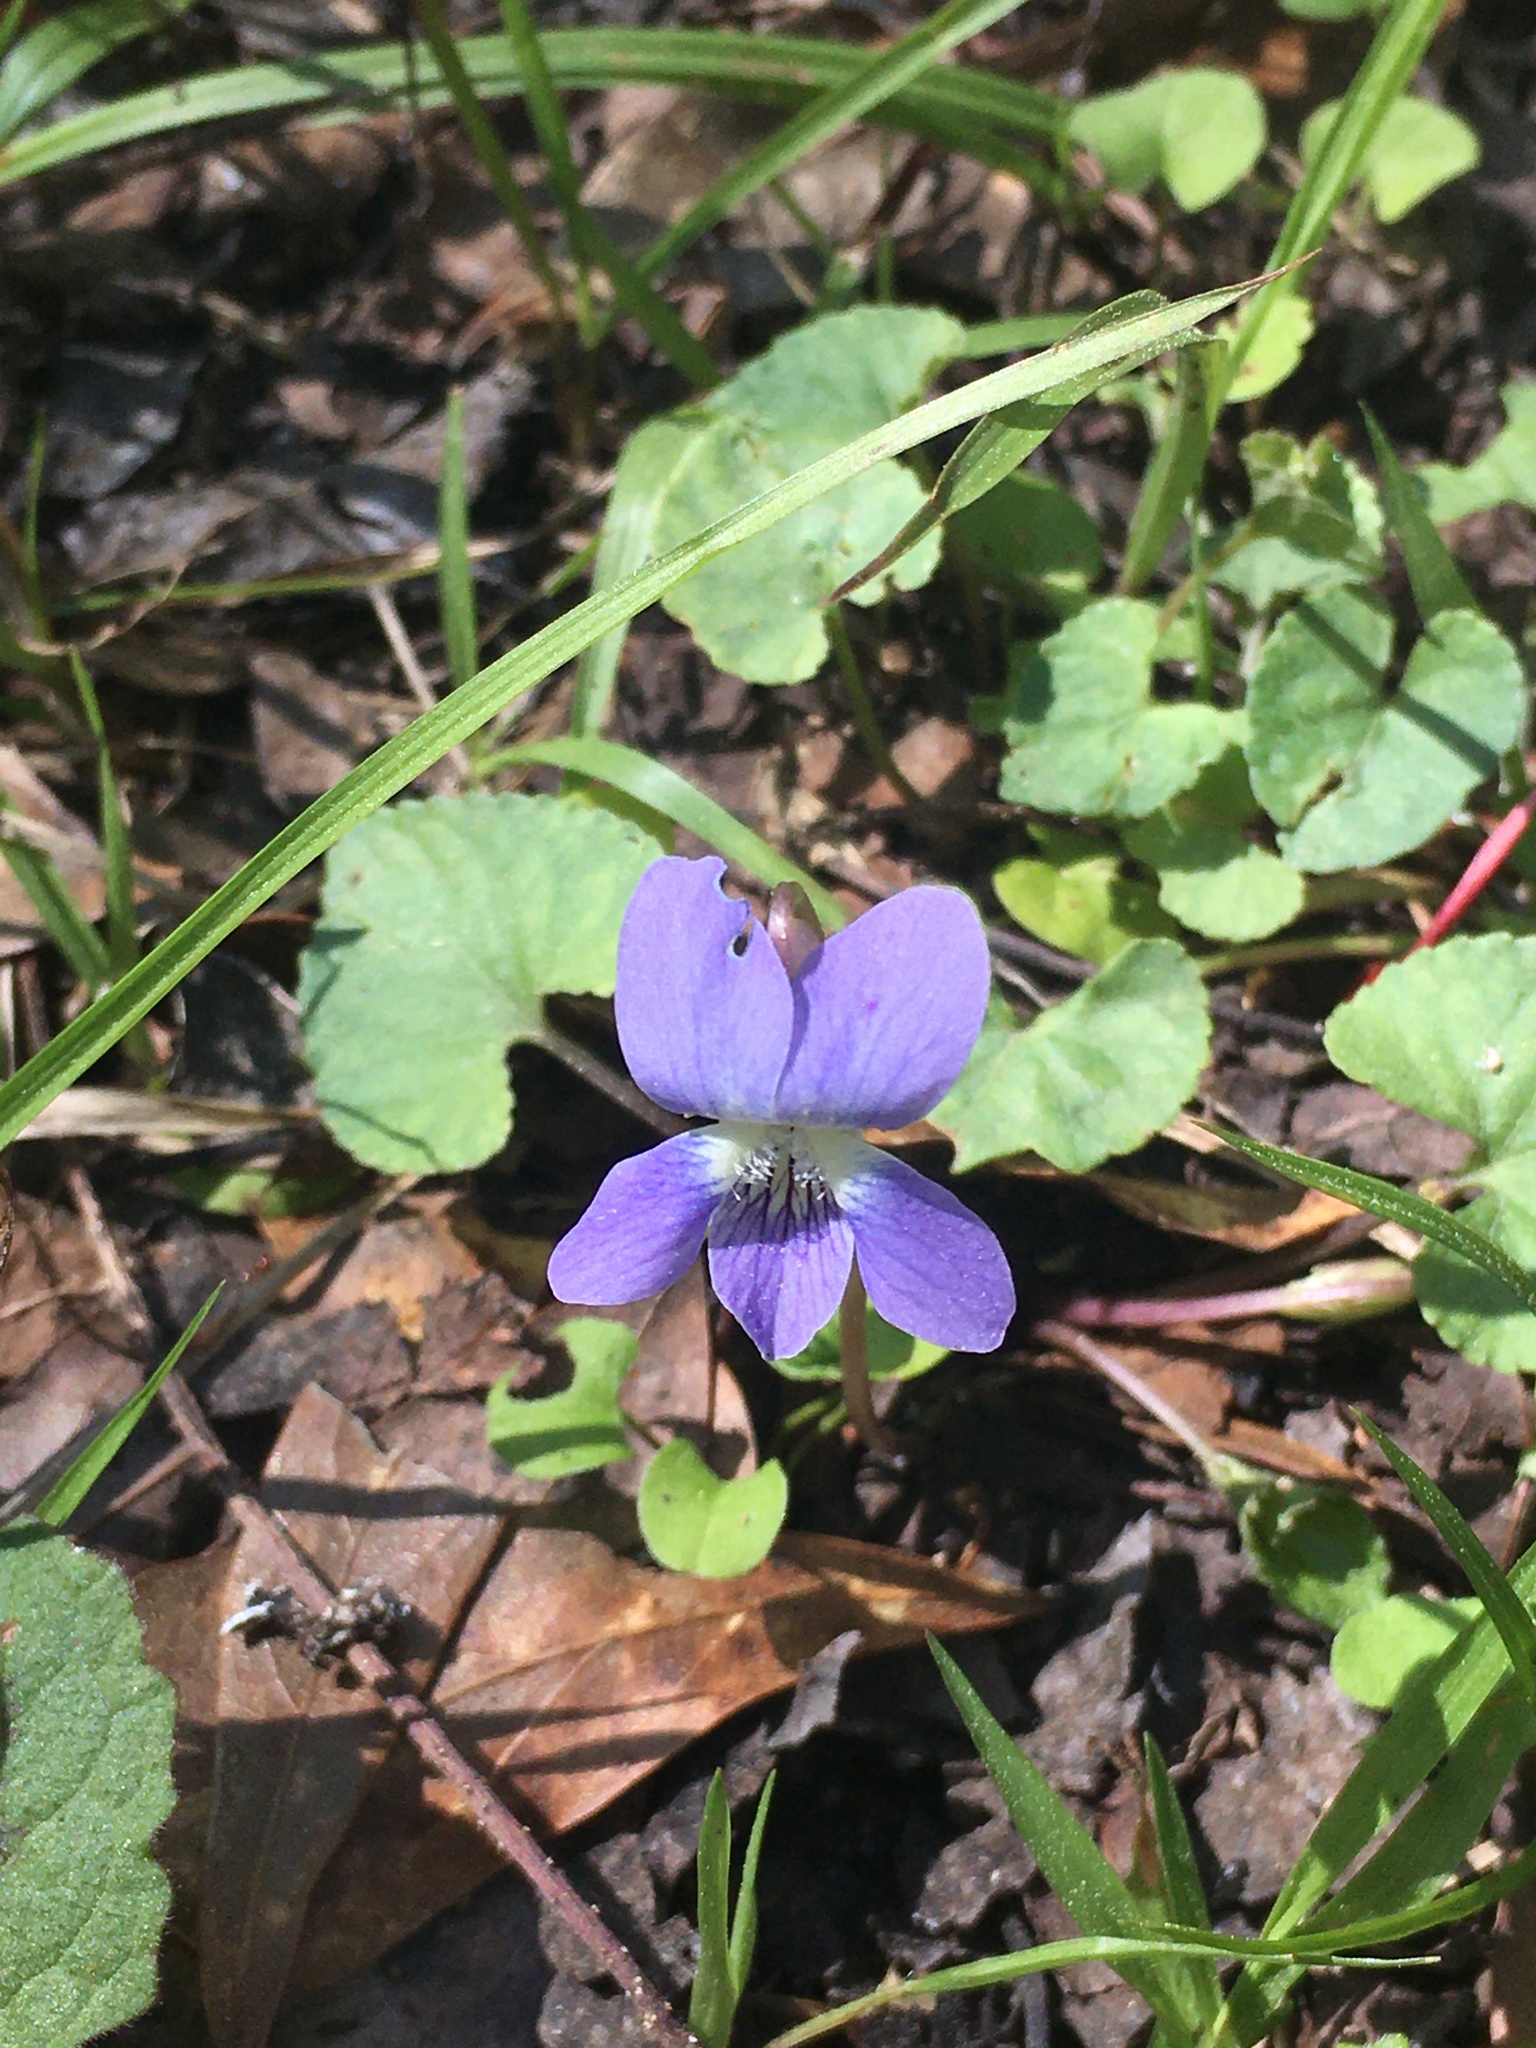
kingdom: Plantae
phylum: Tracheophyta
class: Magnoliopsida
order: Malpighiales
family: Violaceae
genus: Viola
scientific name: Viola sororia
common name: Dooryard violet
